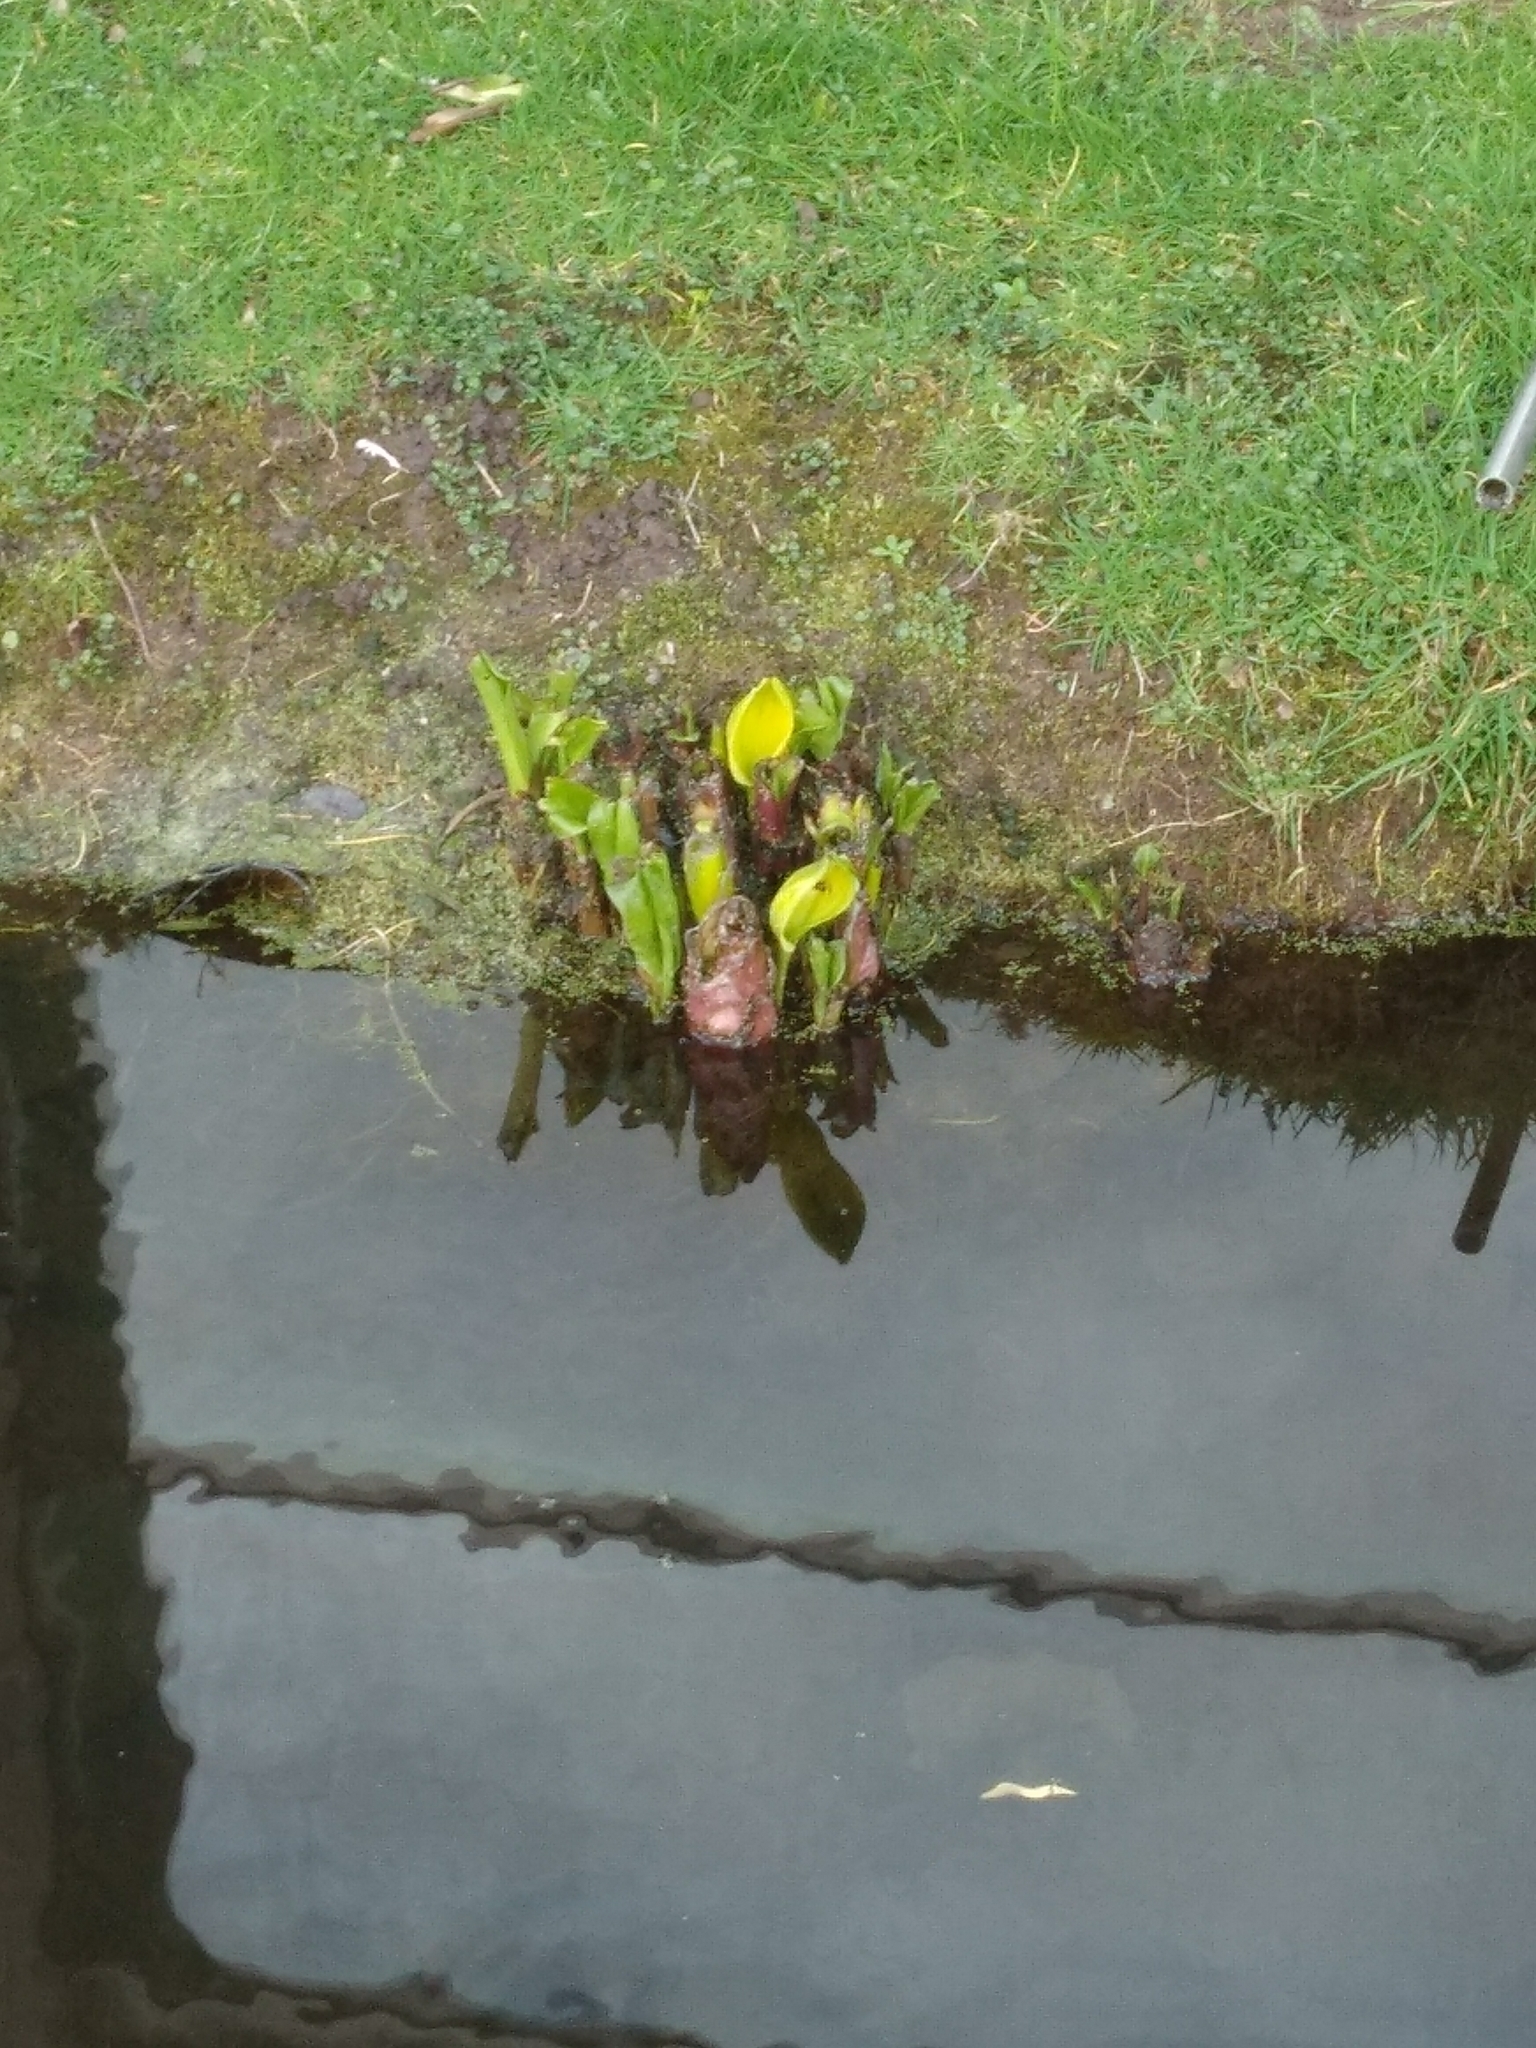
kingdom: Plantae
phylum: Tracheophyta
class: Liliopsida
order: Alismatales
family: Araceae
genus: Lysichiton
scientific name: Lysichiton americanus
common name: American skunk cabbage
